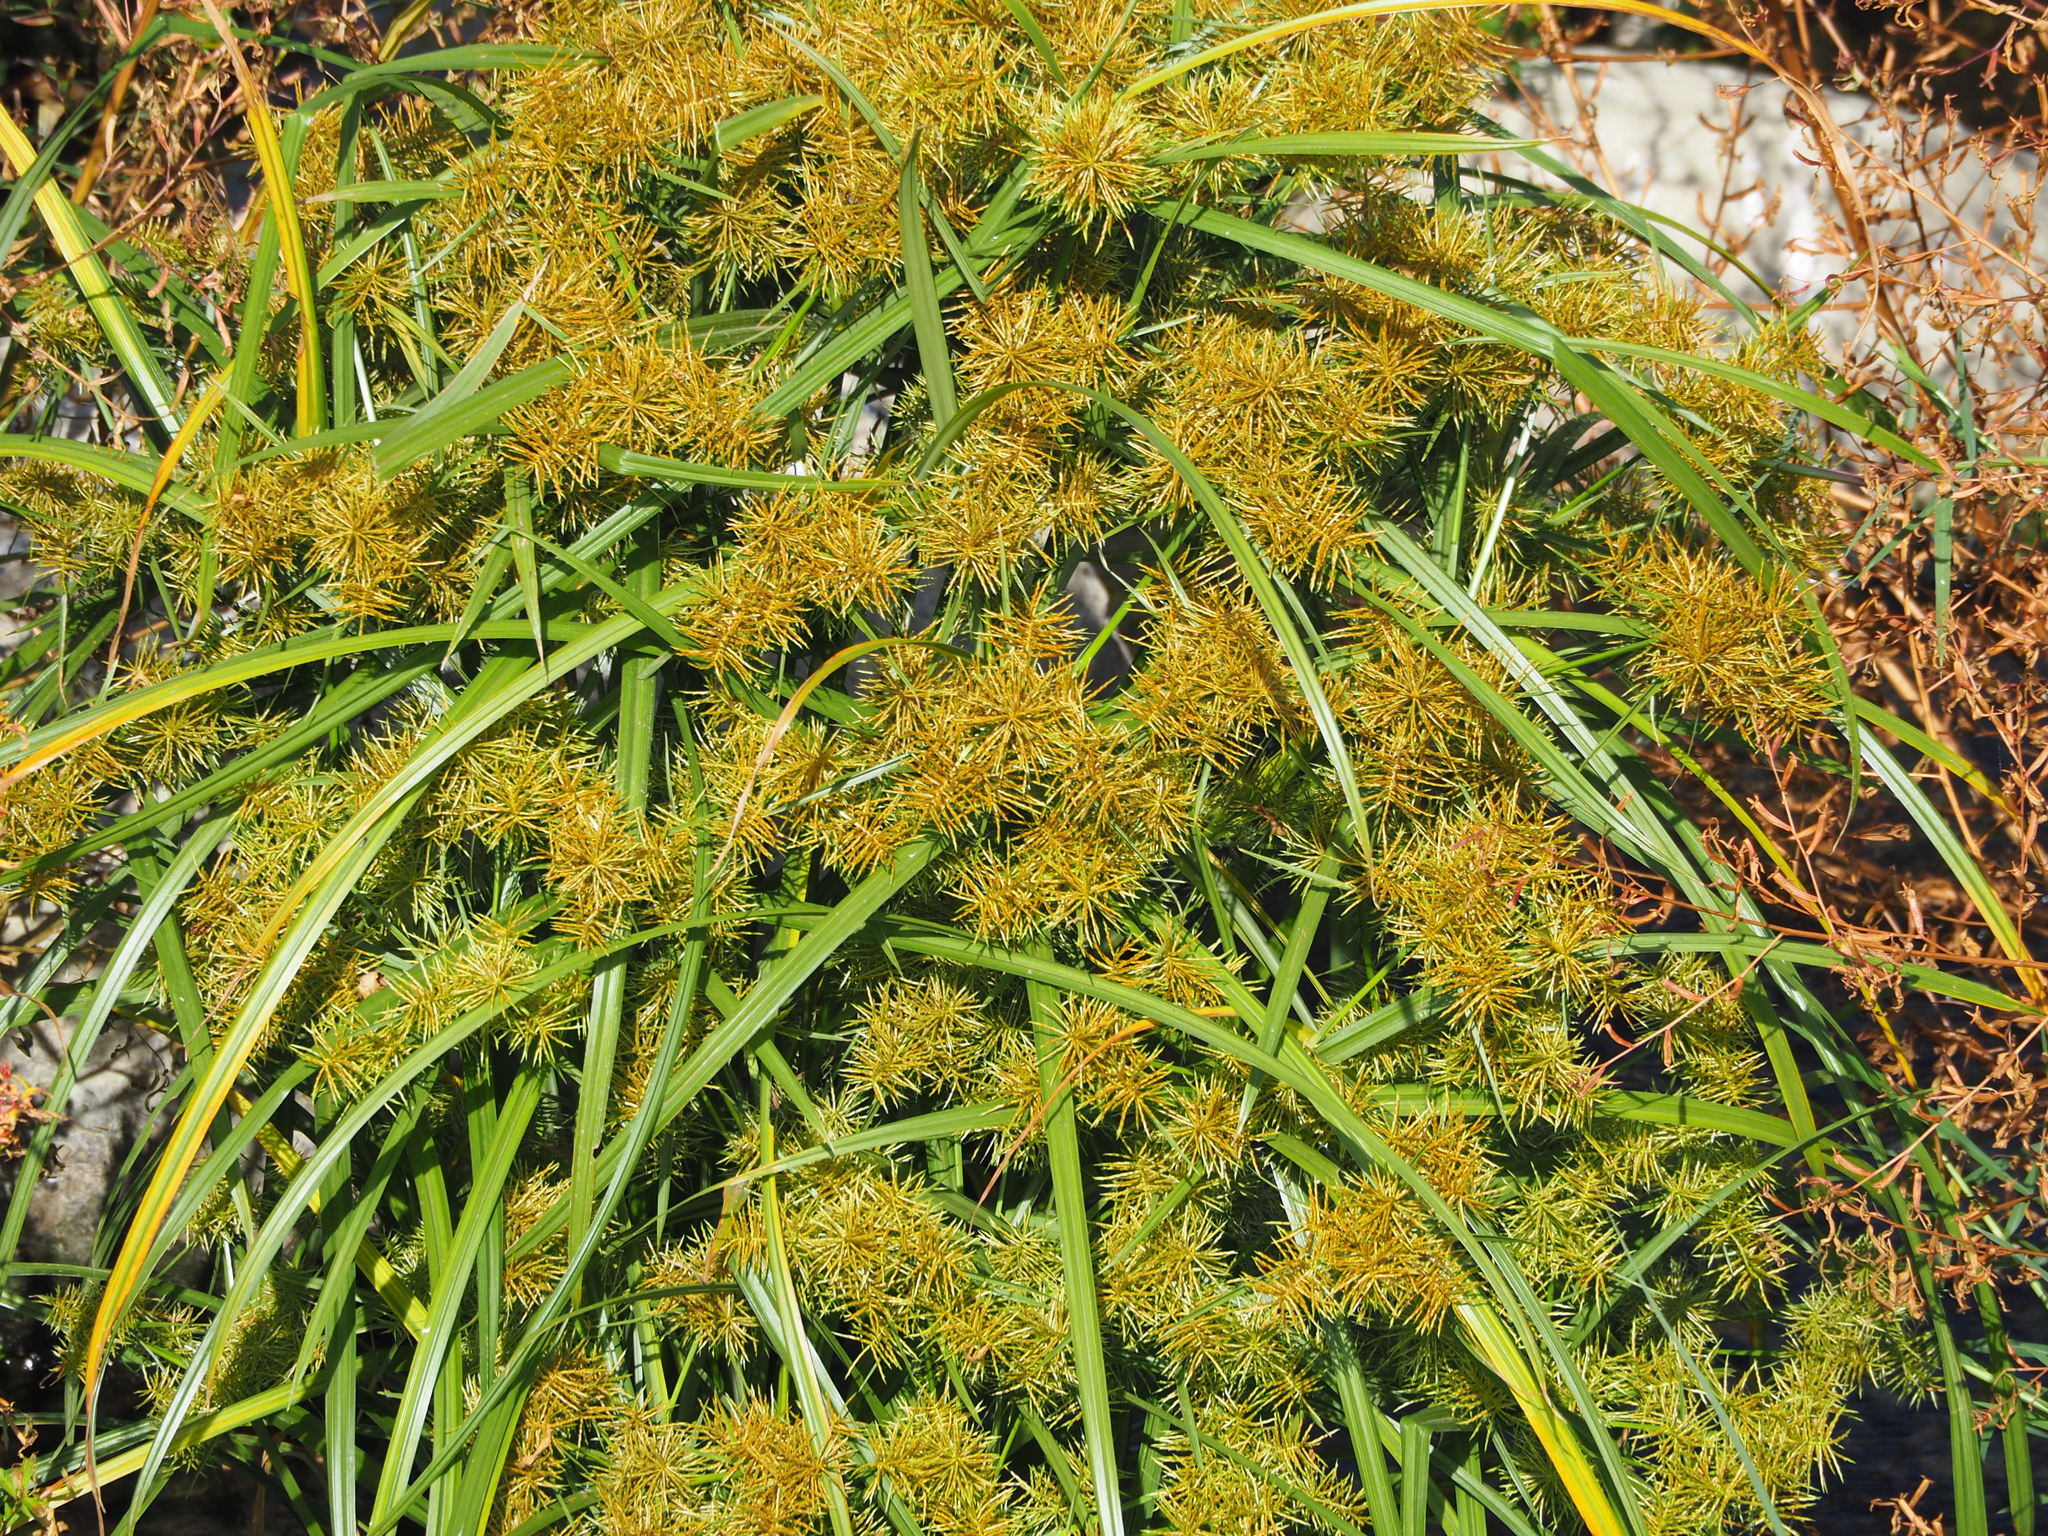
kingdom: Plantae
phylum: Tracheophyta
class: Liliopsida
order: Poales
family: Cyperaceae
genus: Cyperus
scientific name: Cyperus odoratus
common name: Fragrant flatsedge
